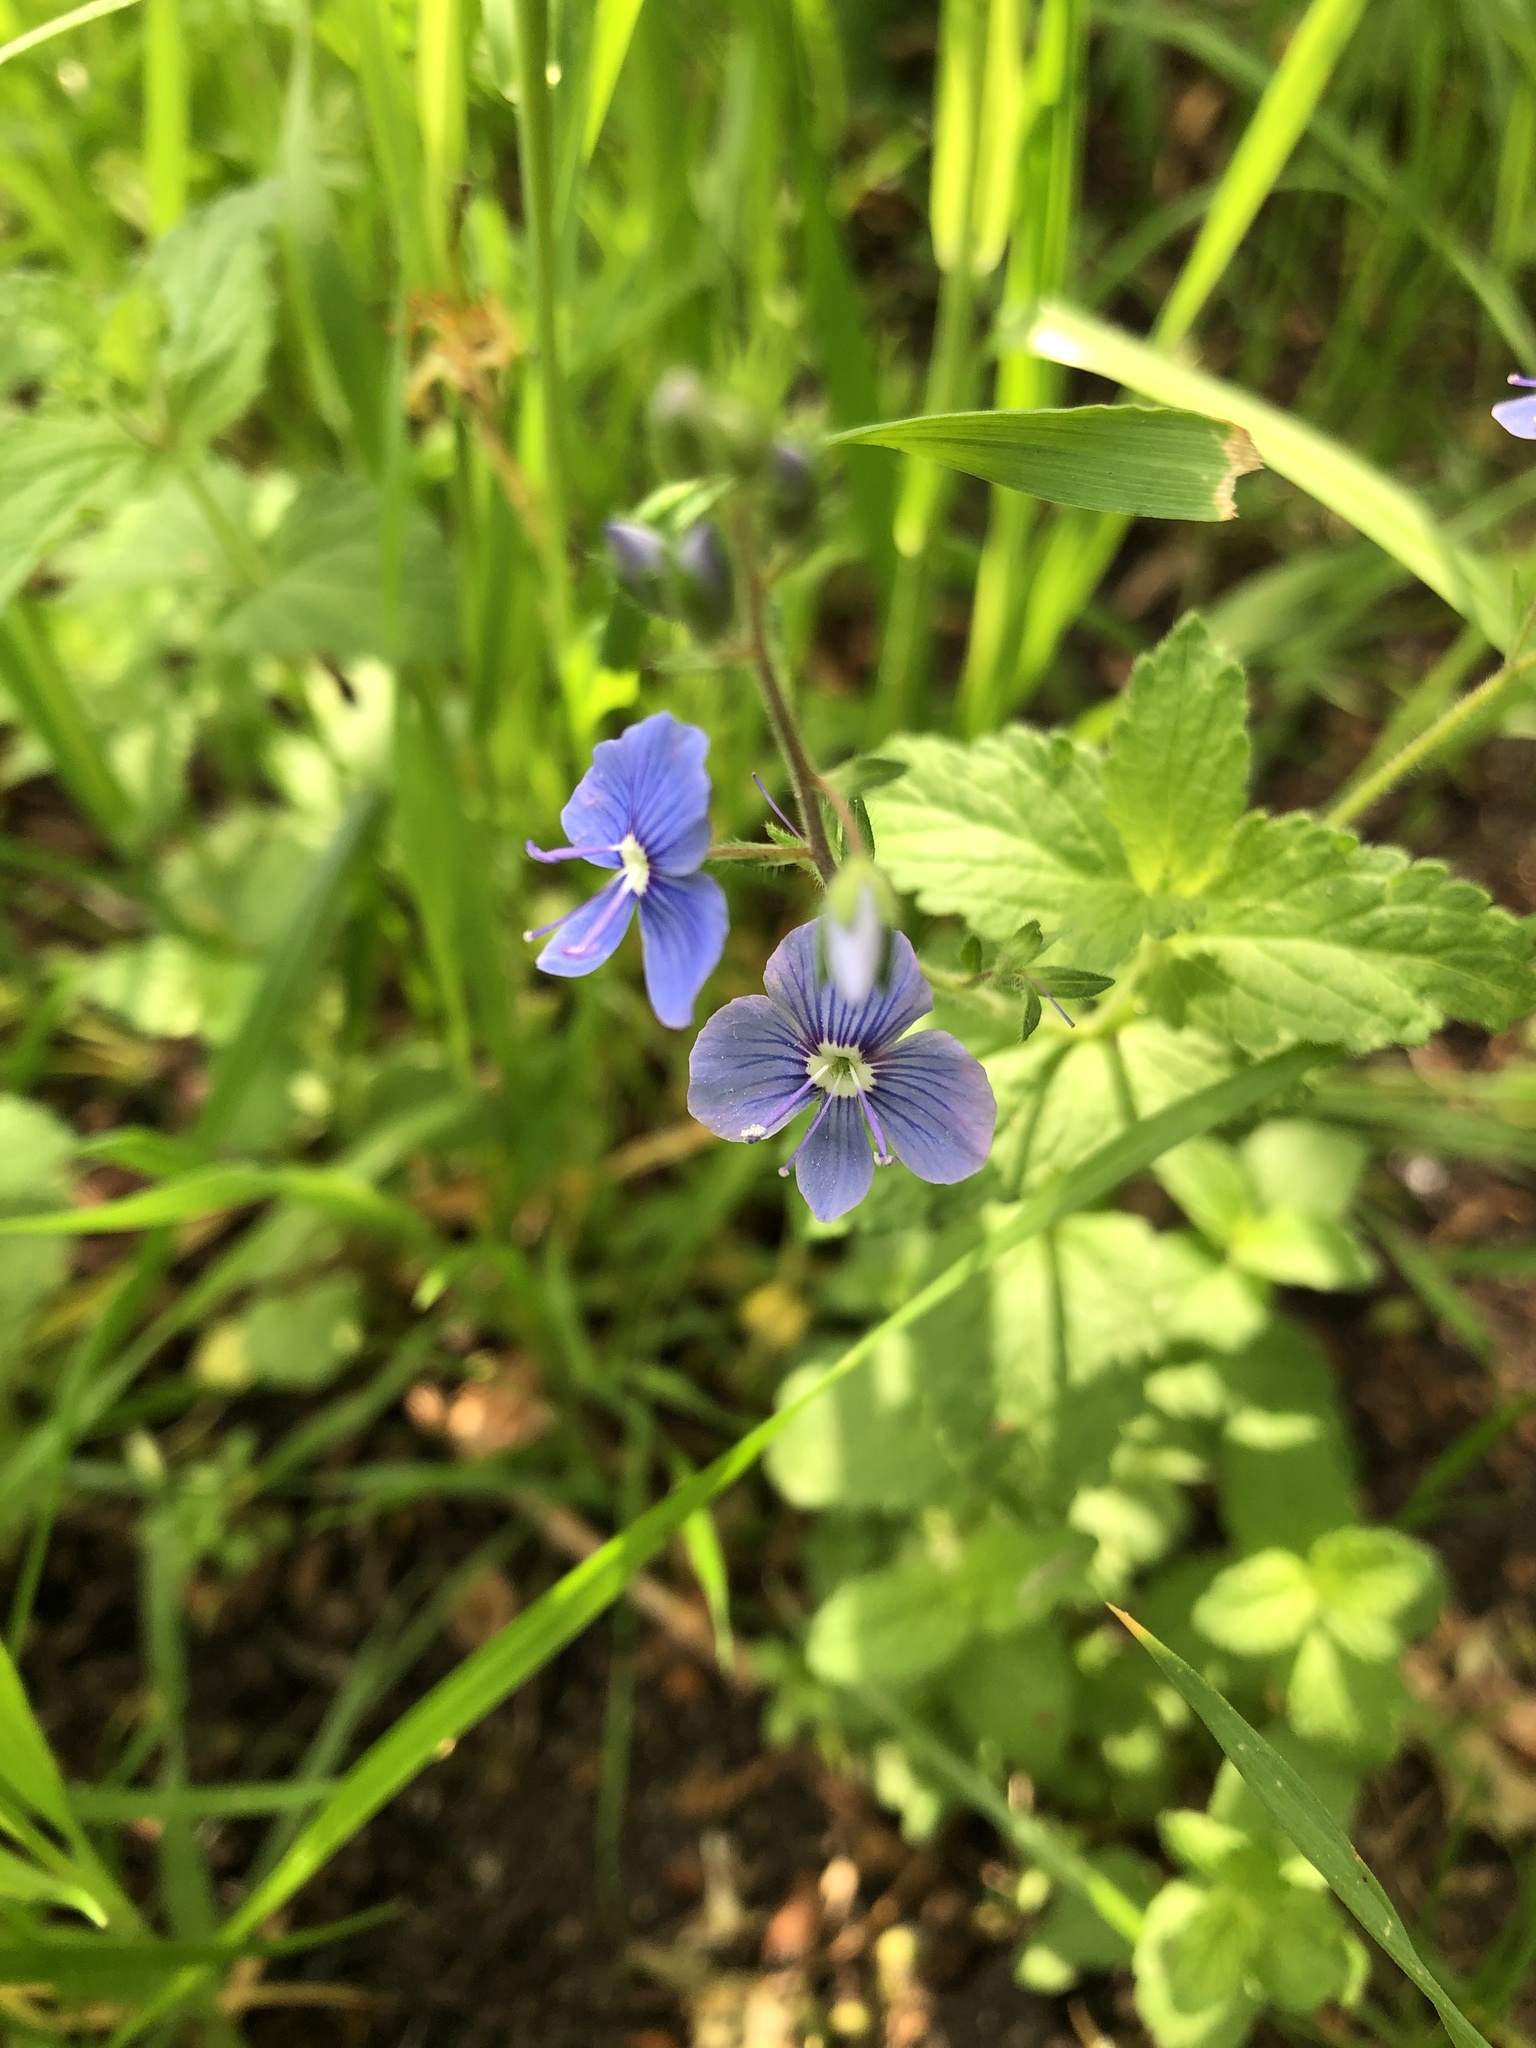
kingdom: Plantae
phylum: Tracheophyta
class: Magnoliopsida
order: Lamiales
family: Plantaginaceae
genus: Veronica
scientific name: Veronica chamaedrys
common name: Germander speedwell
